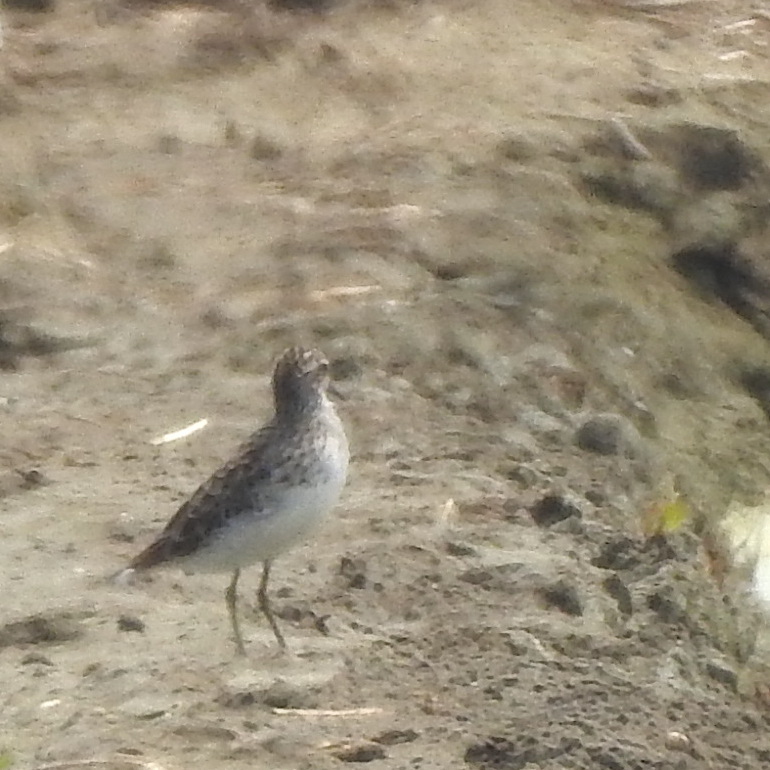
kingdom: Animalia
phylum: Chordata
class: Aves
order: Charadriiformes
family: Scolopacidae
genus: Calidris
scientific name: Calidris subminuta
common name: Long-toed stint
